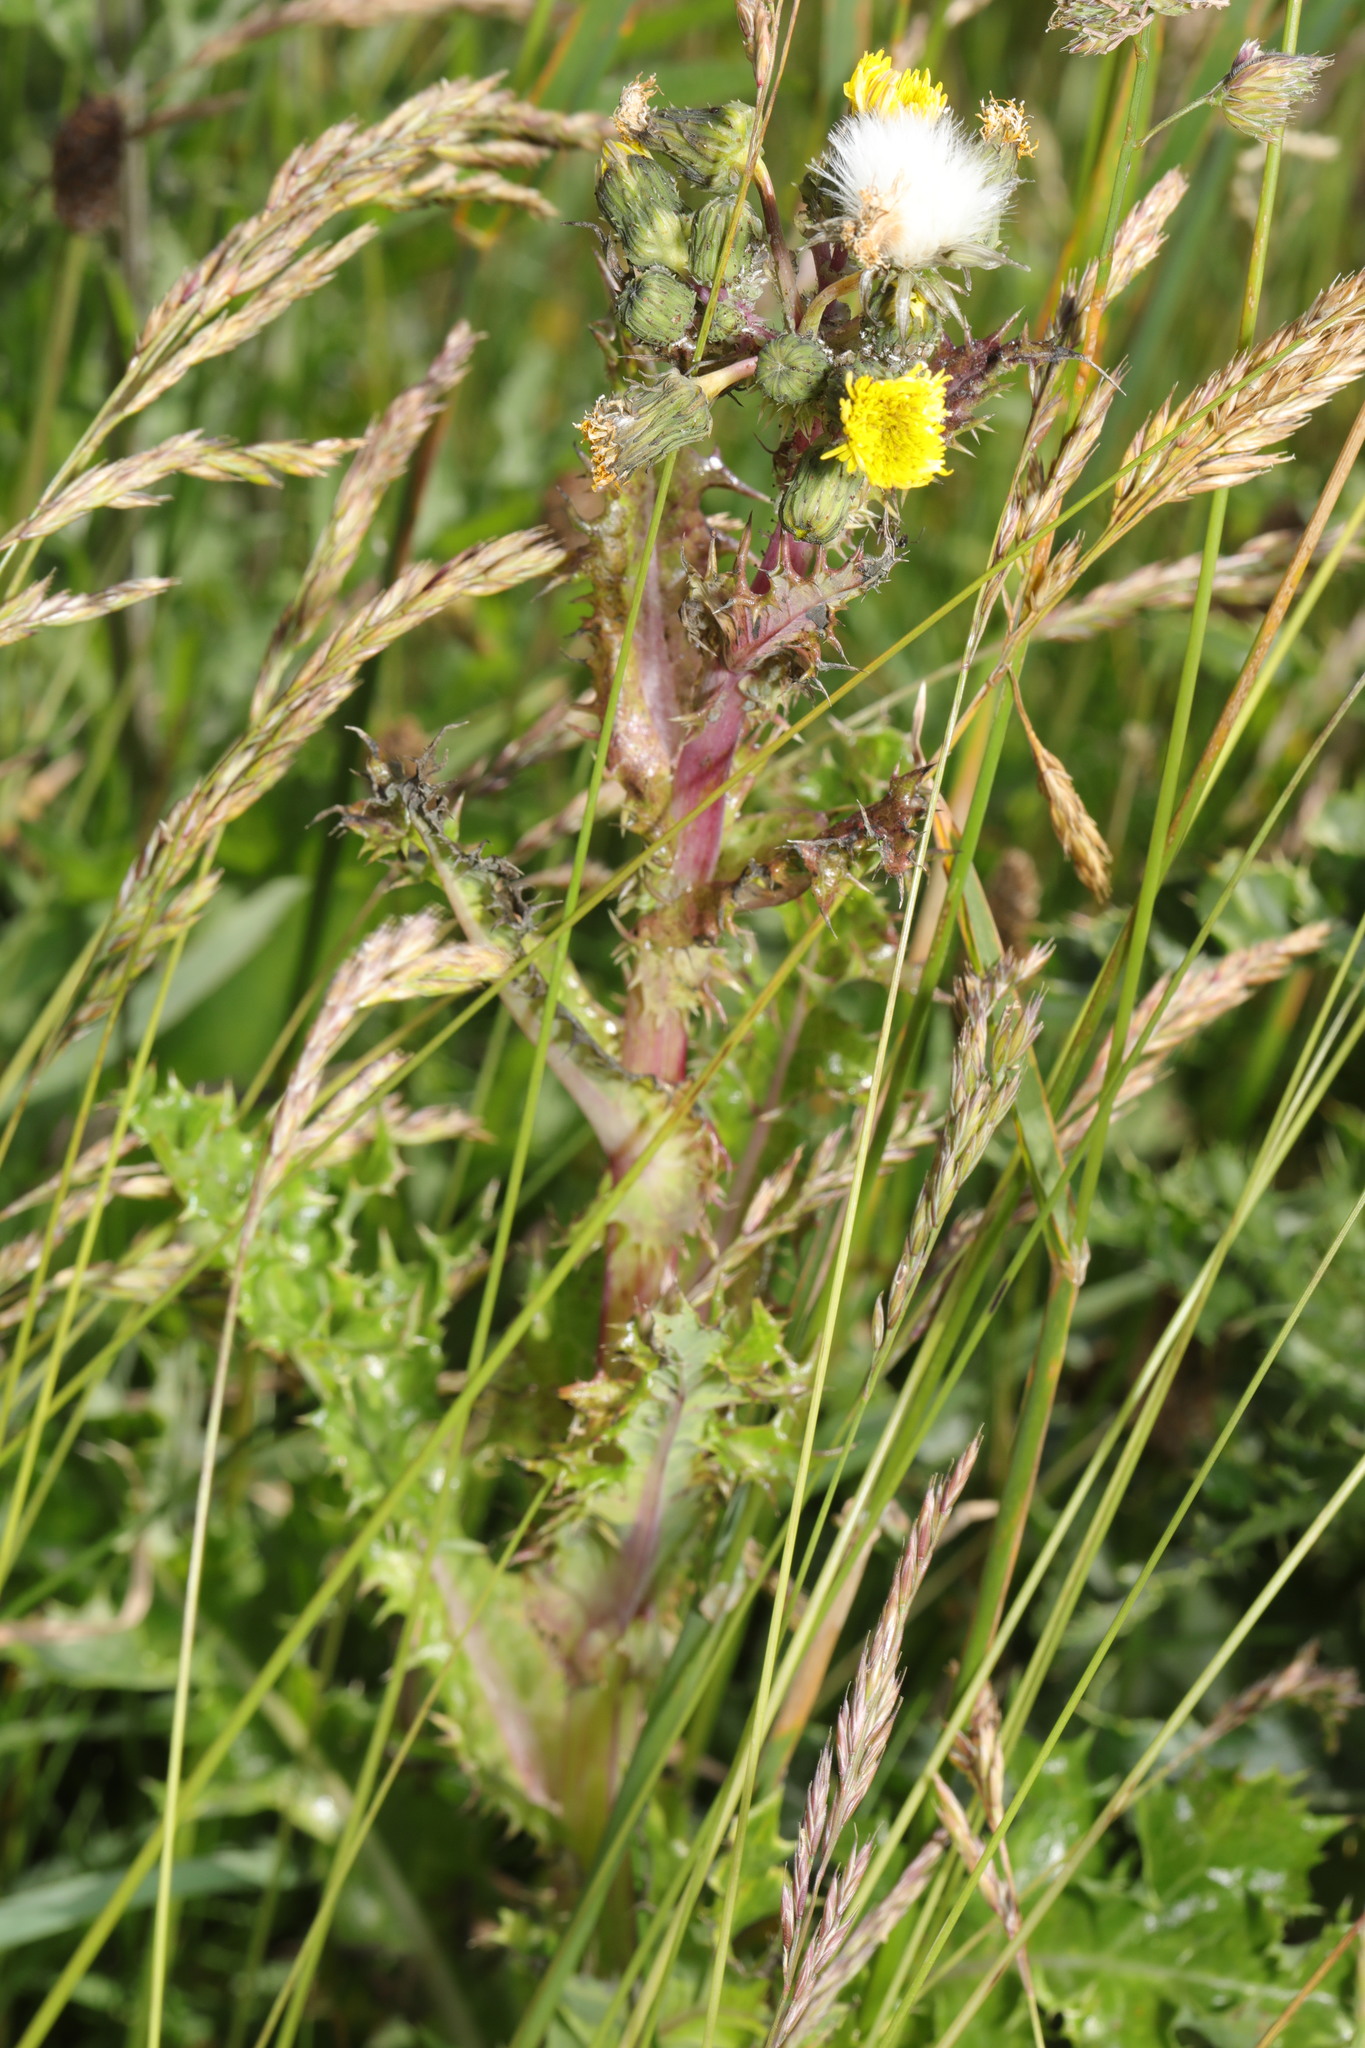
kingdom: Plantae
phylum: Tracheophyta
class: Magnoliopsida
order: Asterales
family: Asteraceae
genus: Sonchus
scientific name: Sonchus asper
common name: Prickly sow-thistle
